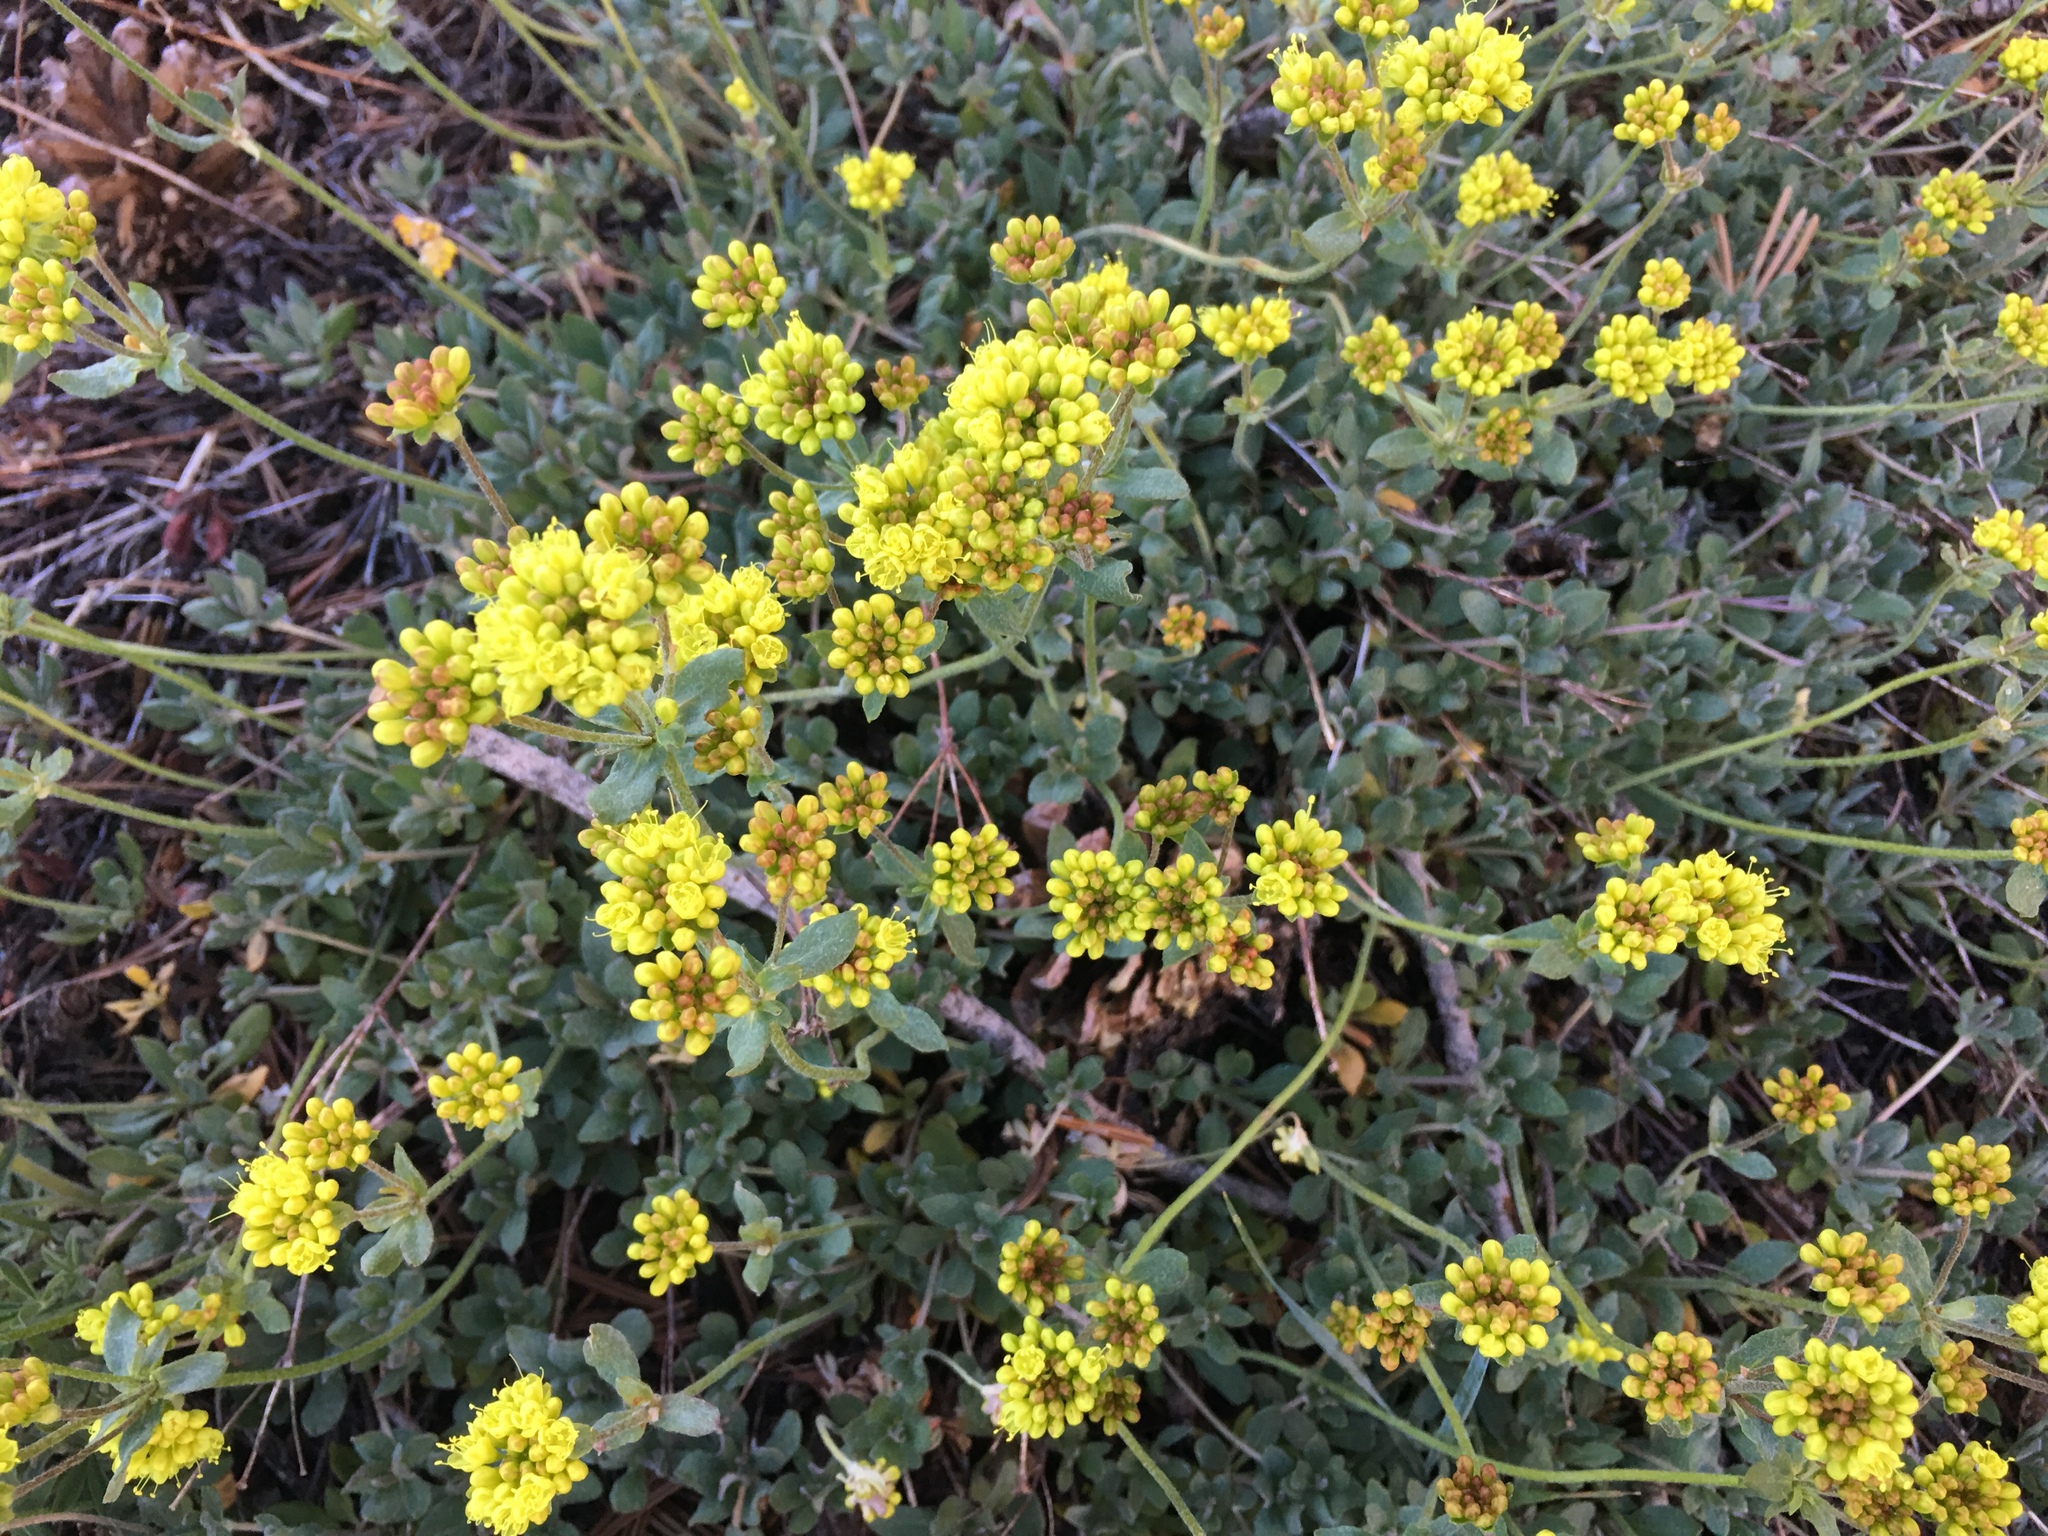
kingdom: Plantae
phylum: Tracheophyta
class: Magnoliopsida
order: Caryophyllales
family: Polygonaceae
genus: Eriogonum
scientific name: Eriogonum umbellatum
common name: Sulfur-buckwheat
